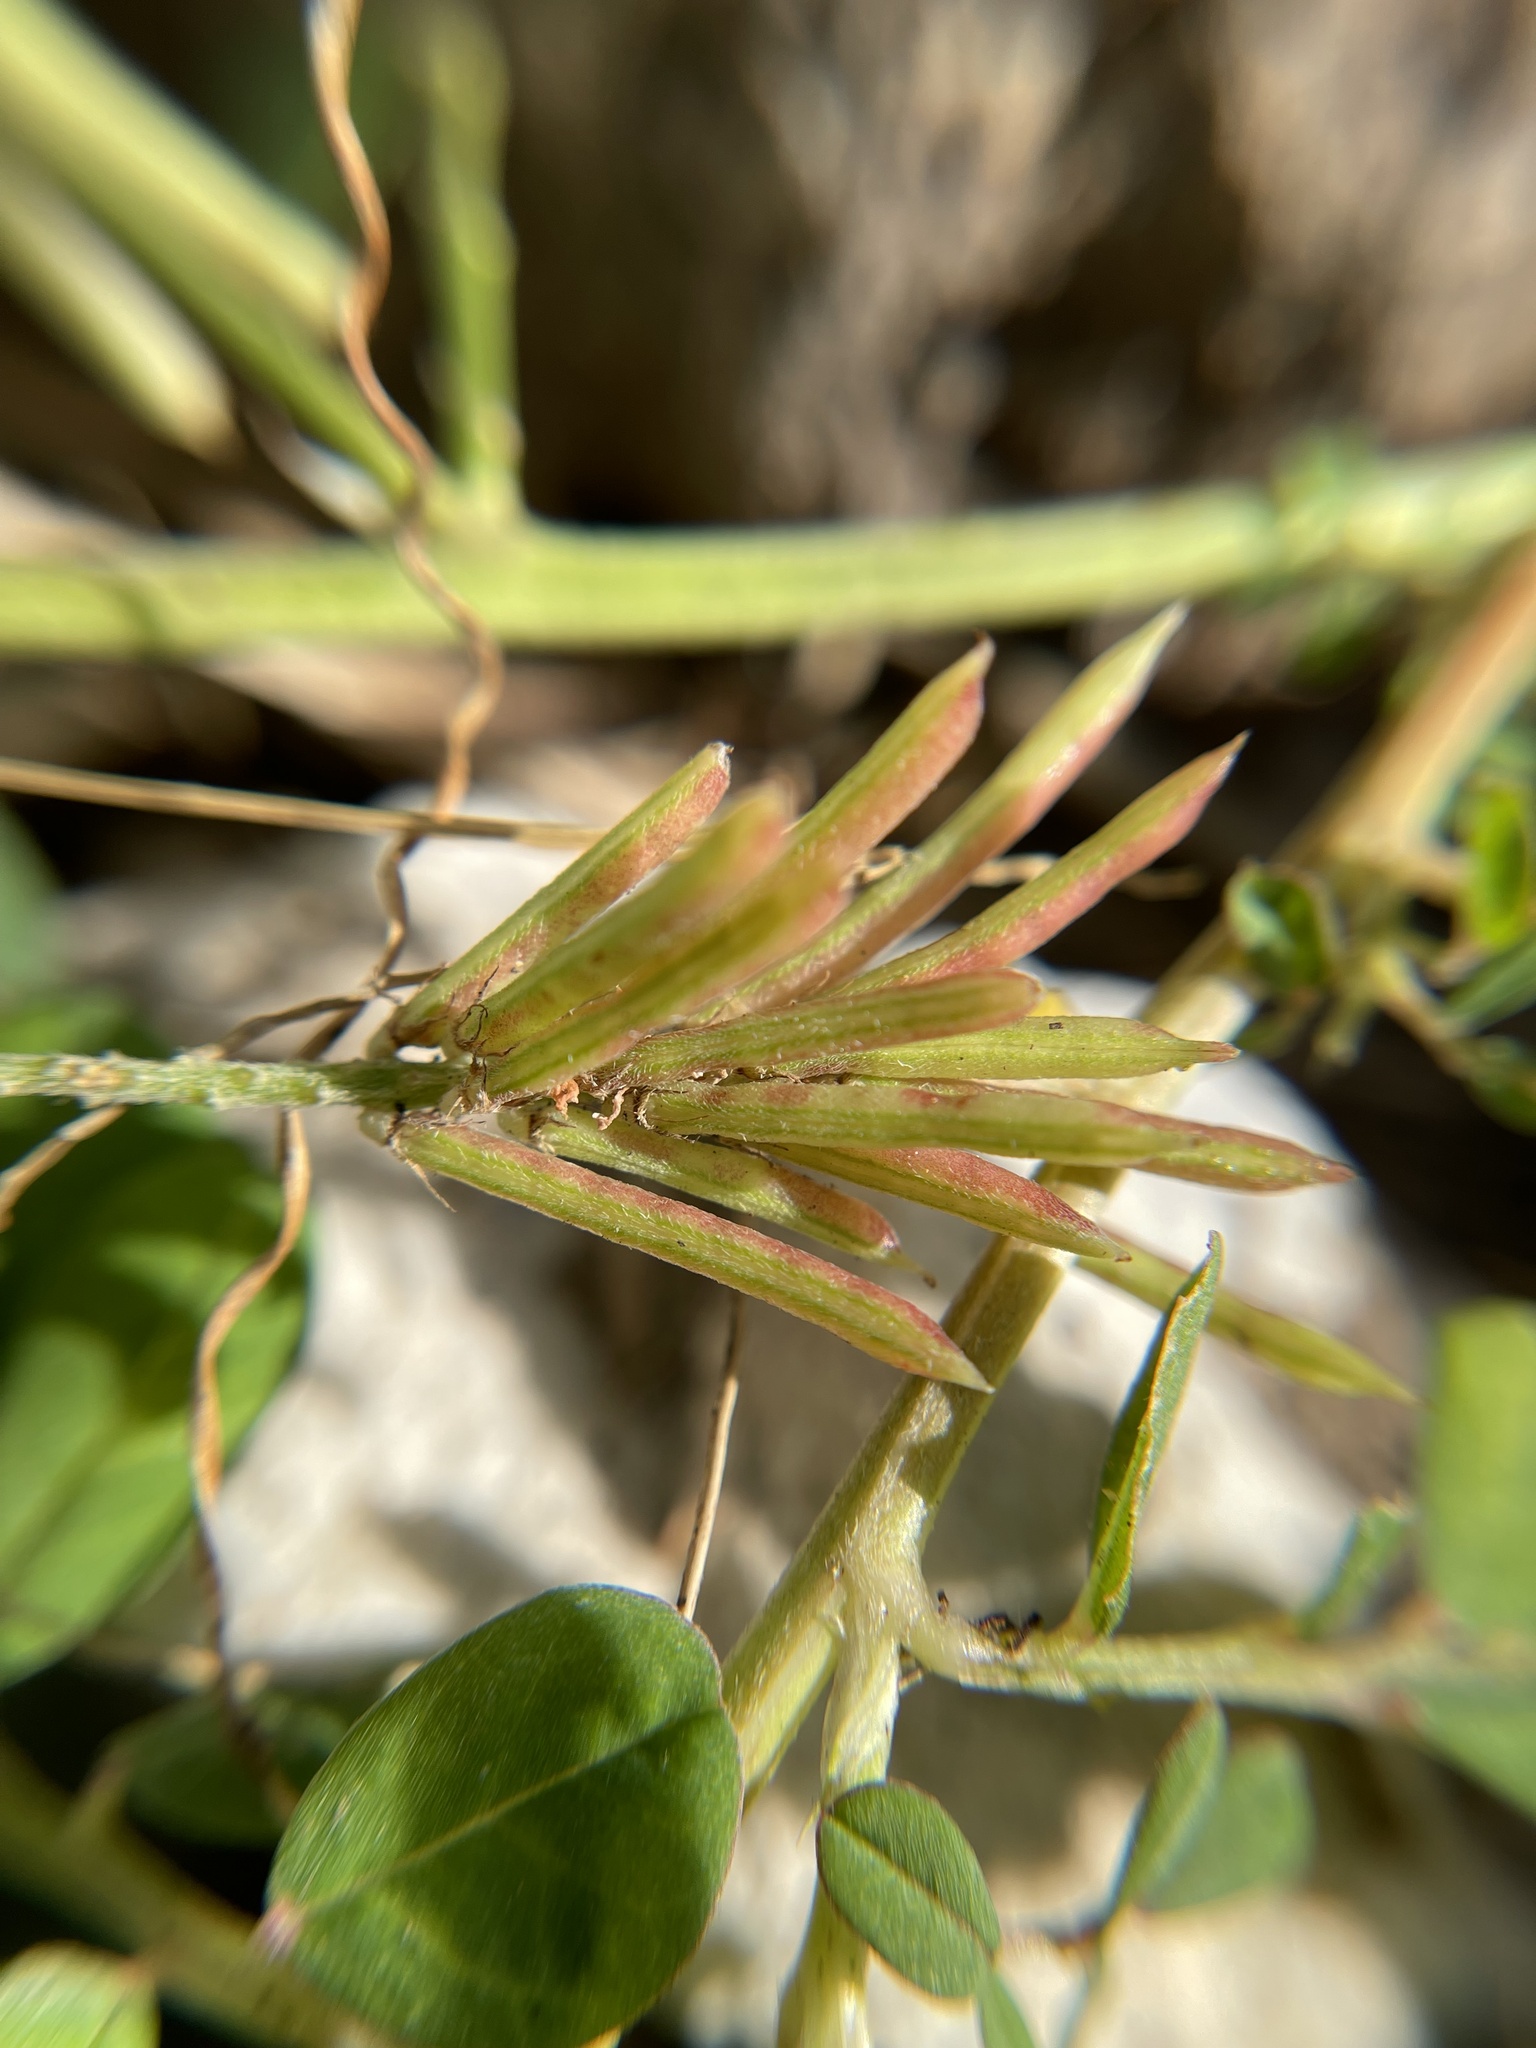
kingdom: Plantae
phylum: Tracheophyta
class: Magnoliopsida
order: Fabales
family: Fabaceae
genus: Indigofera
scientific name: Indigofera spicata
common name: Creeping indigo
